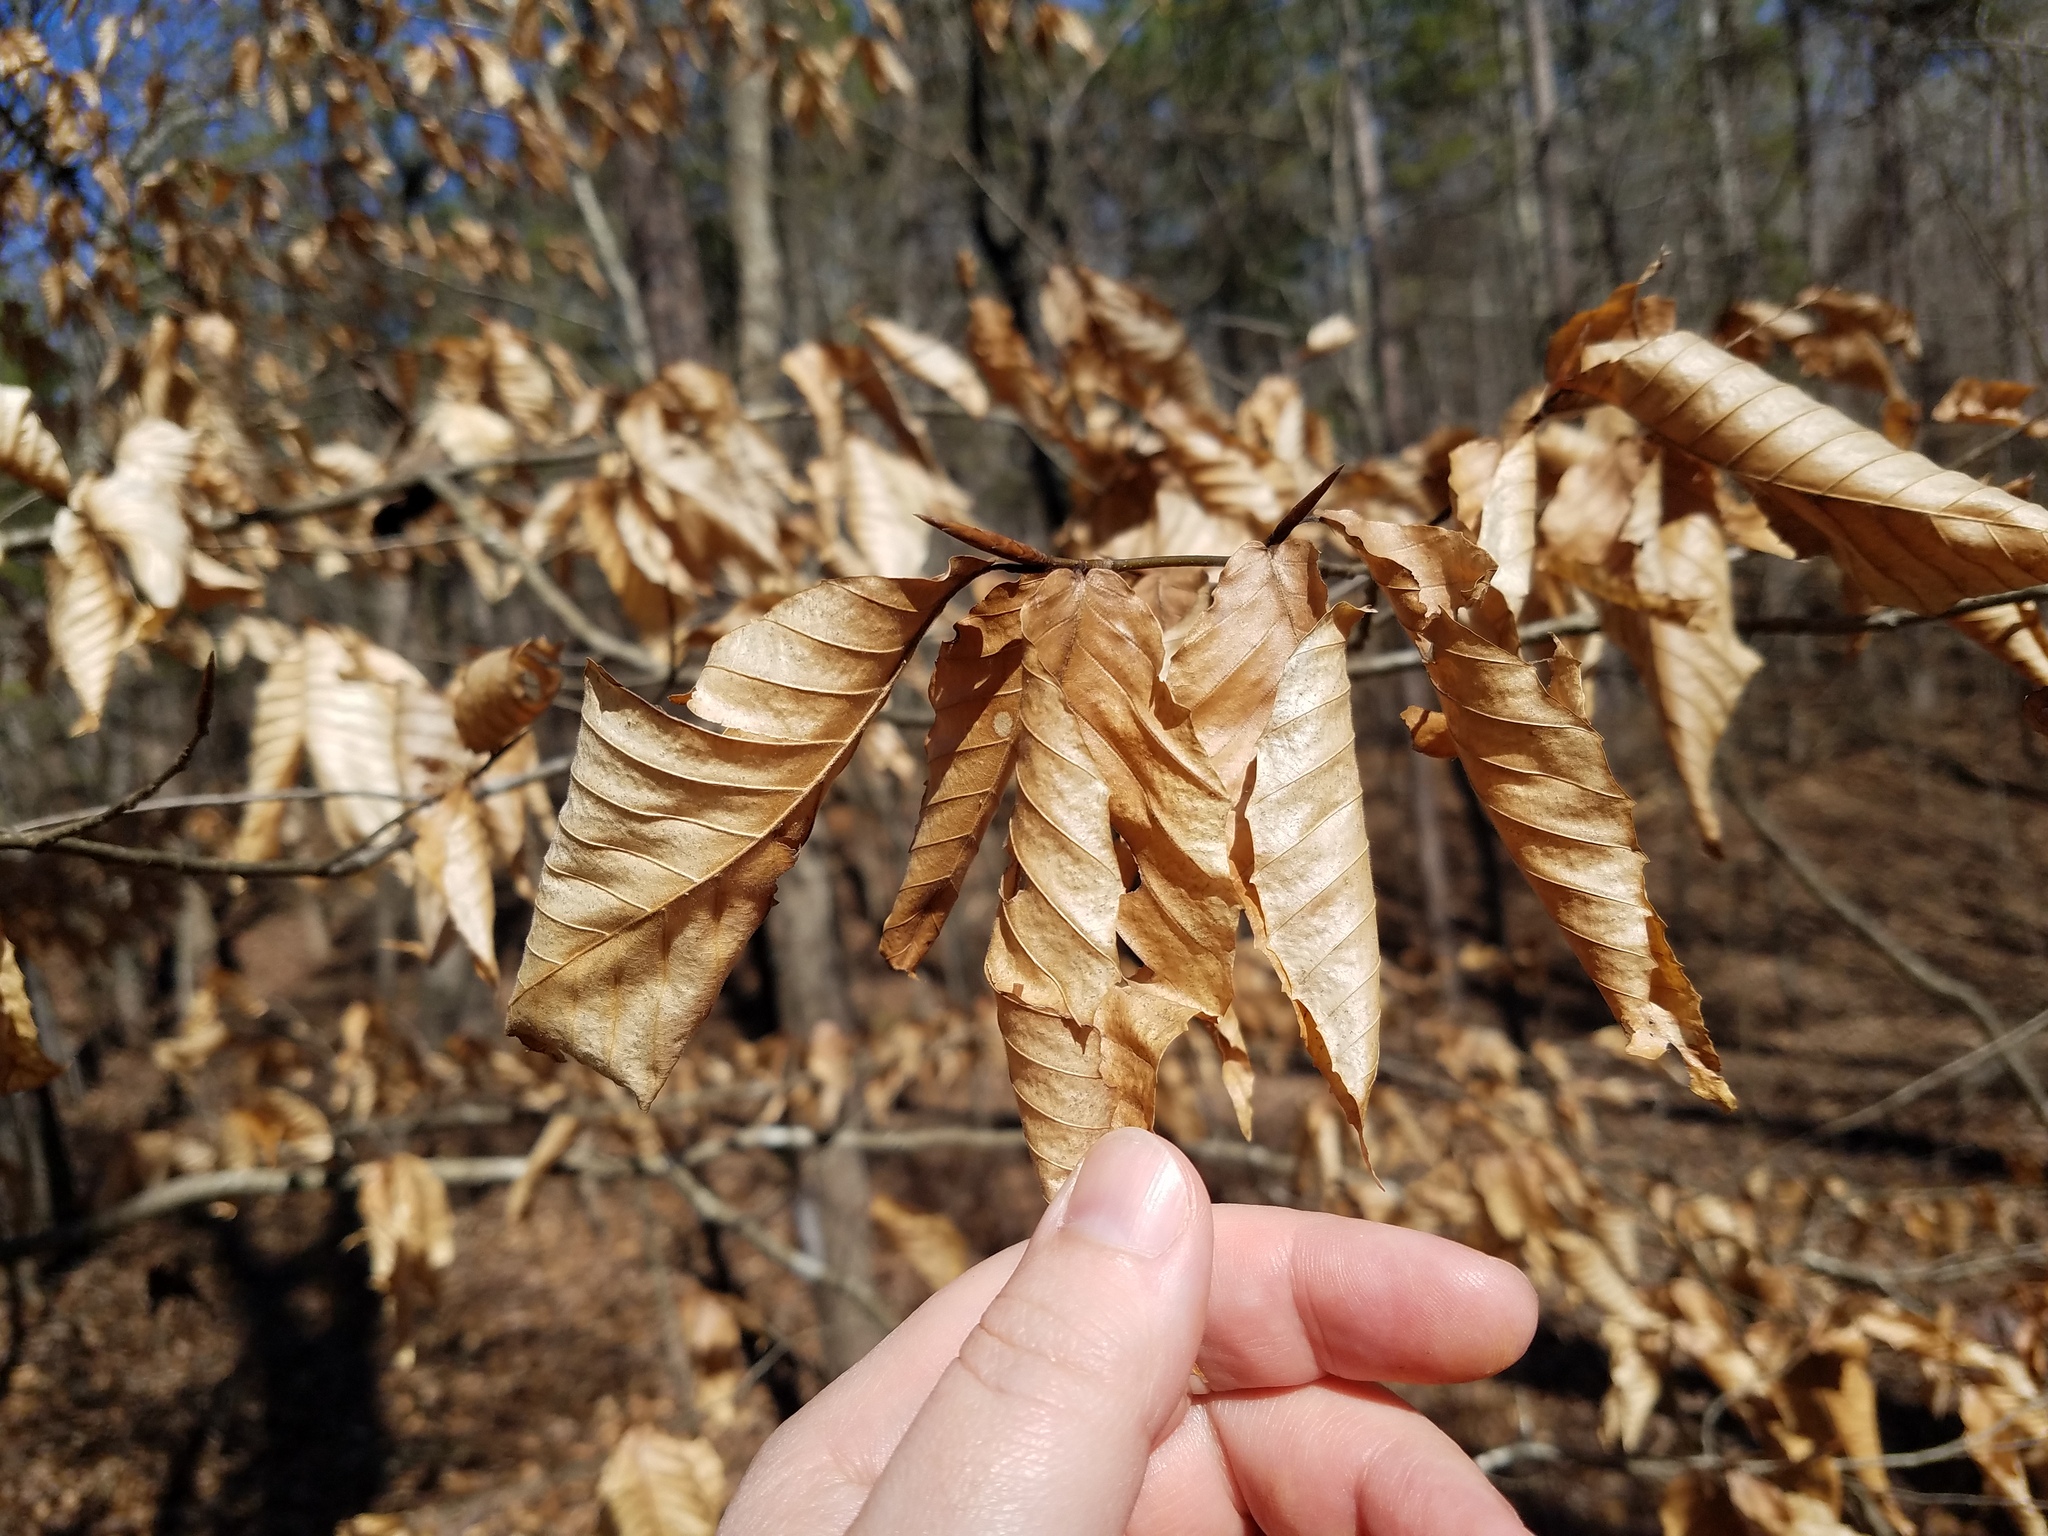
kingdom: Plantae
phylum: Tracheophyta
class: Magnoliopsida
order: Fagales
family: Fagaceae
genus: Fagus
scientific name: Fagus grandifolia
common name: American beech
